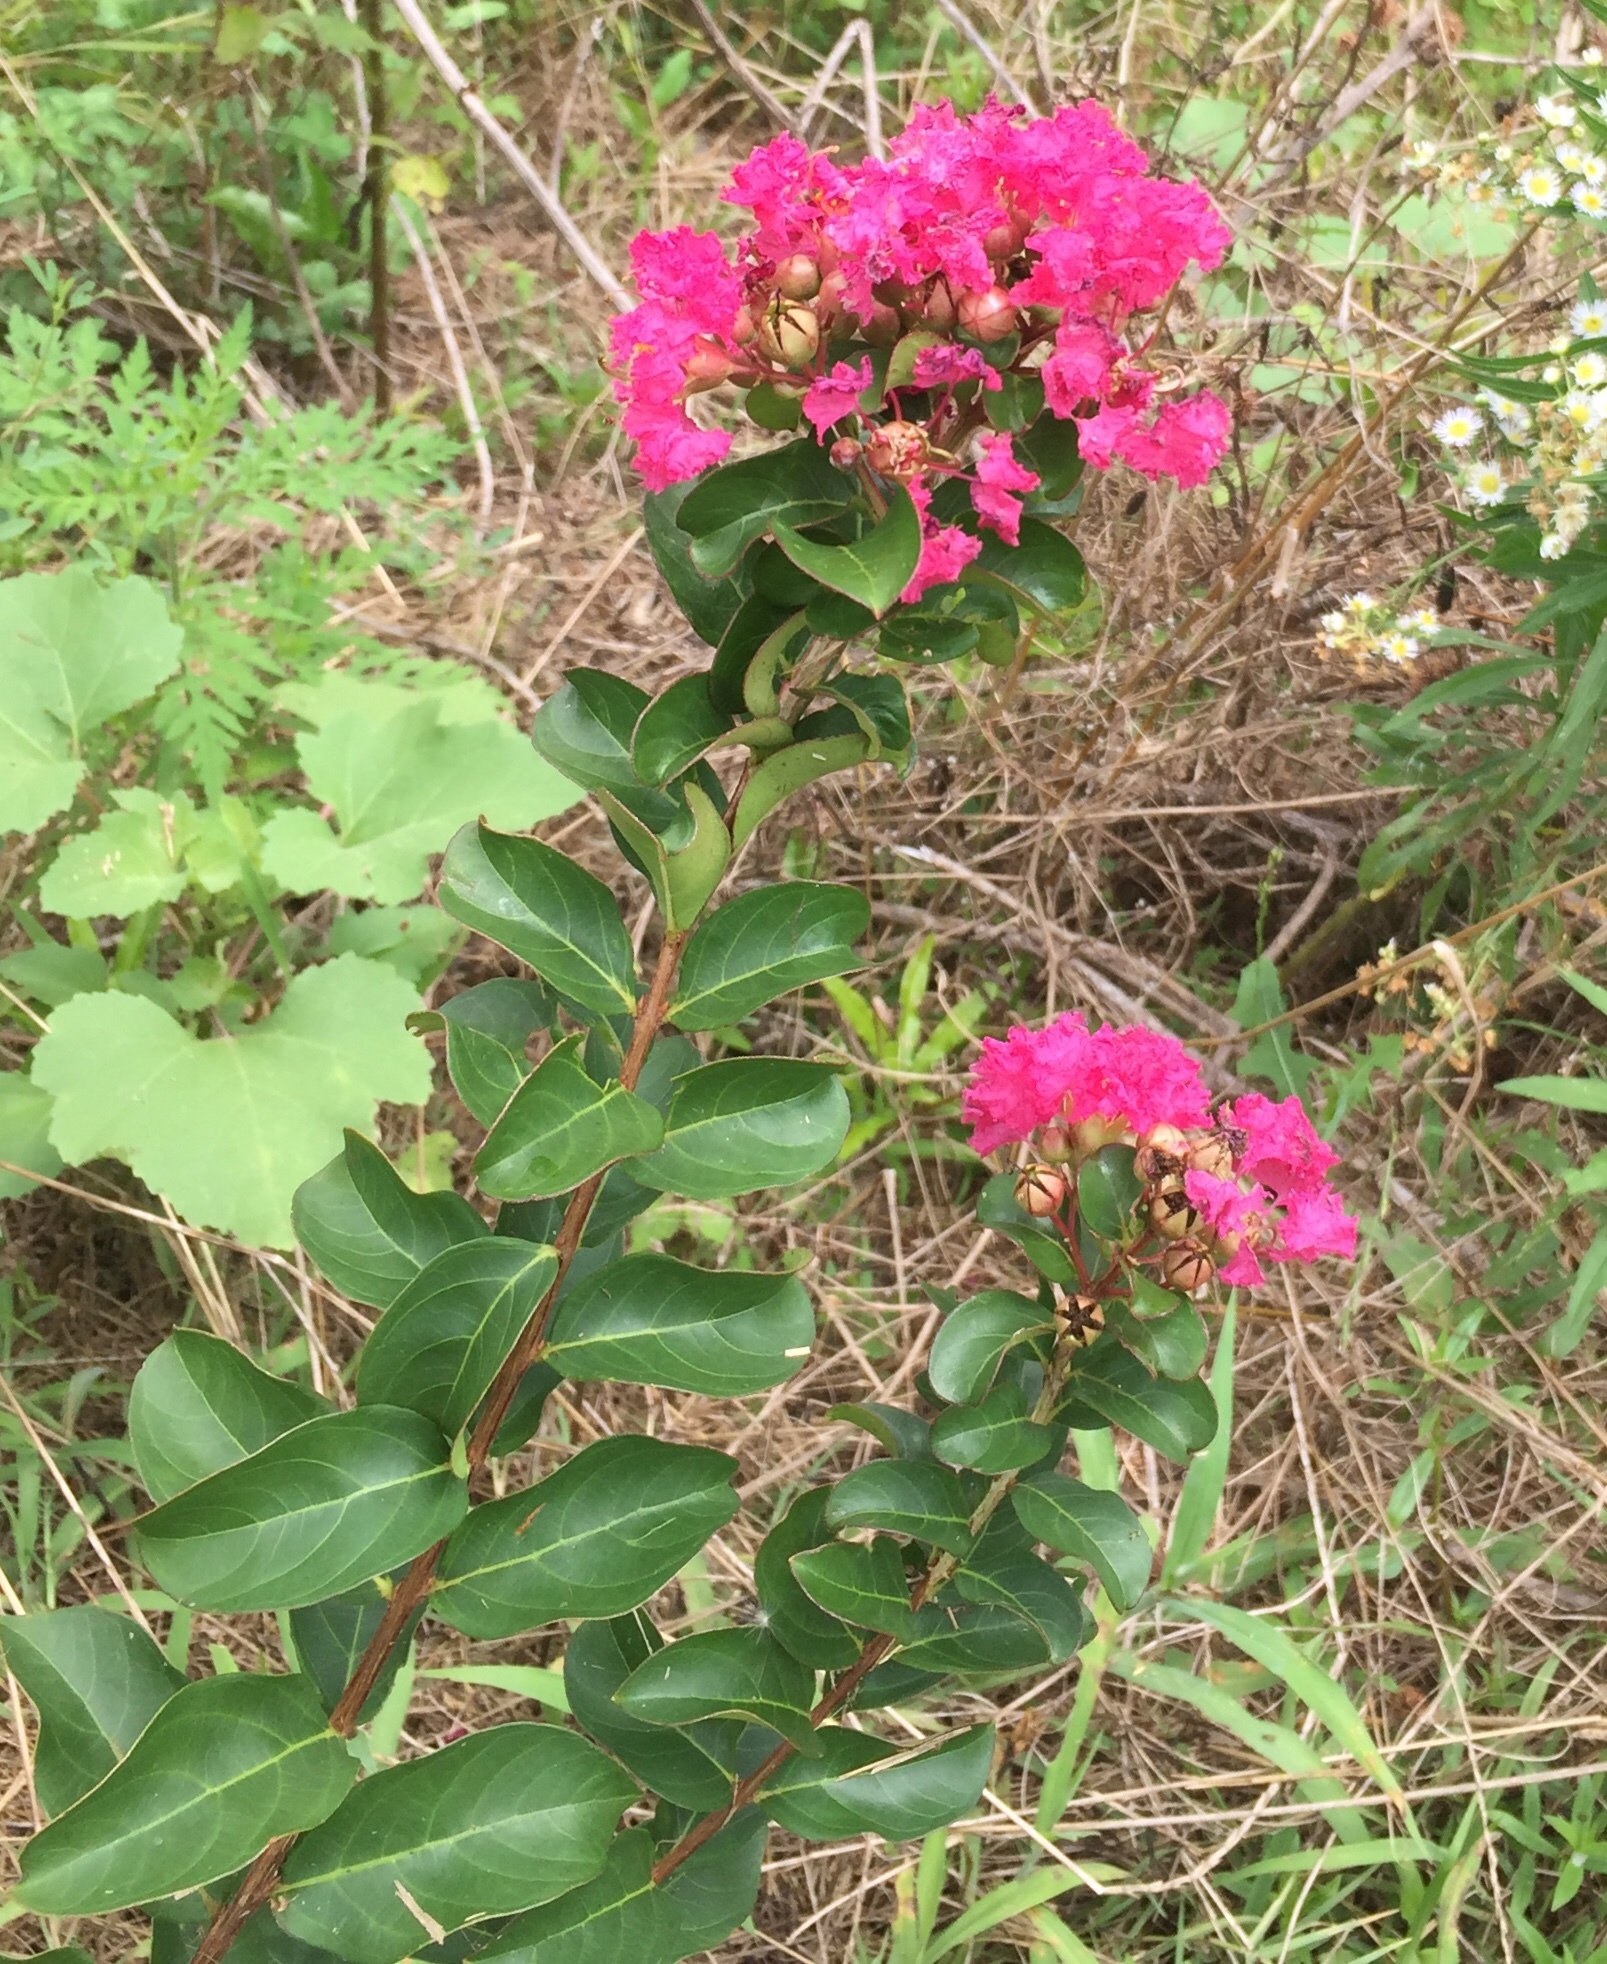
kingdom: Plantae
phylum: Tracheophyta
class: Magnoliopsida
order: Myrtales
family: Lythraceae
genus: Lagerstroemia
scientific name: Lagerstroemia indica
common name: Crape-myrtle
